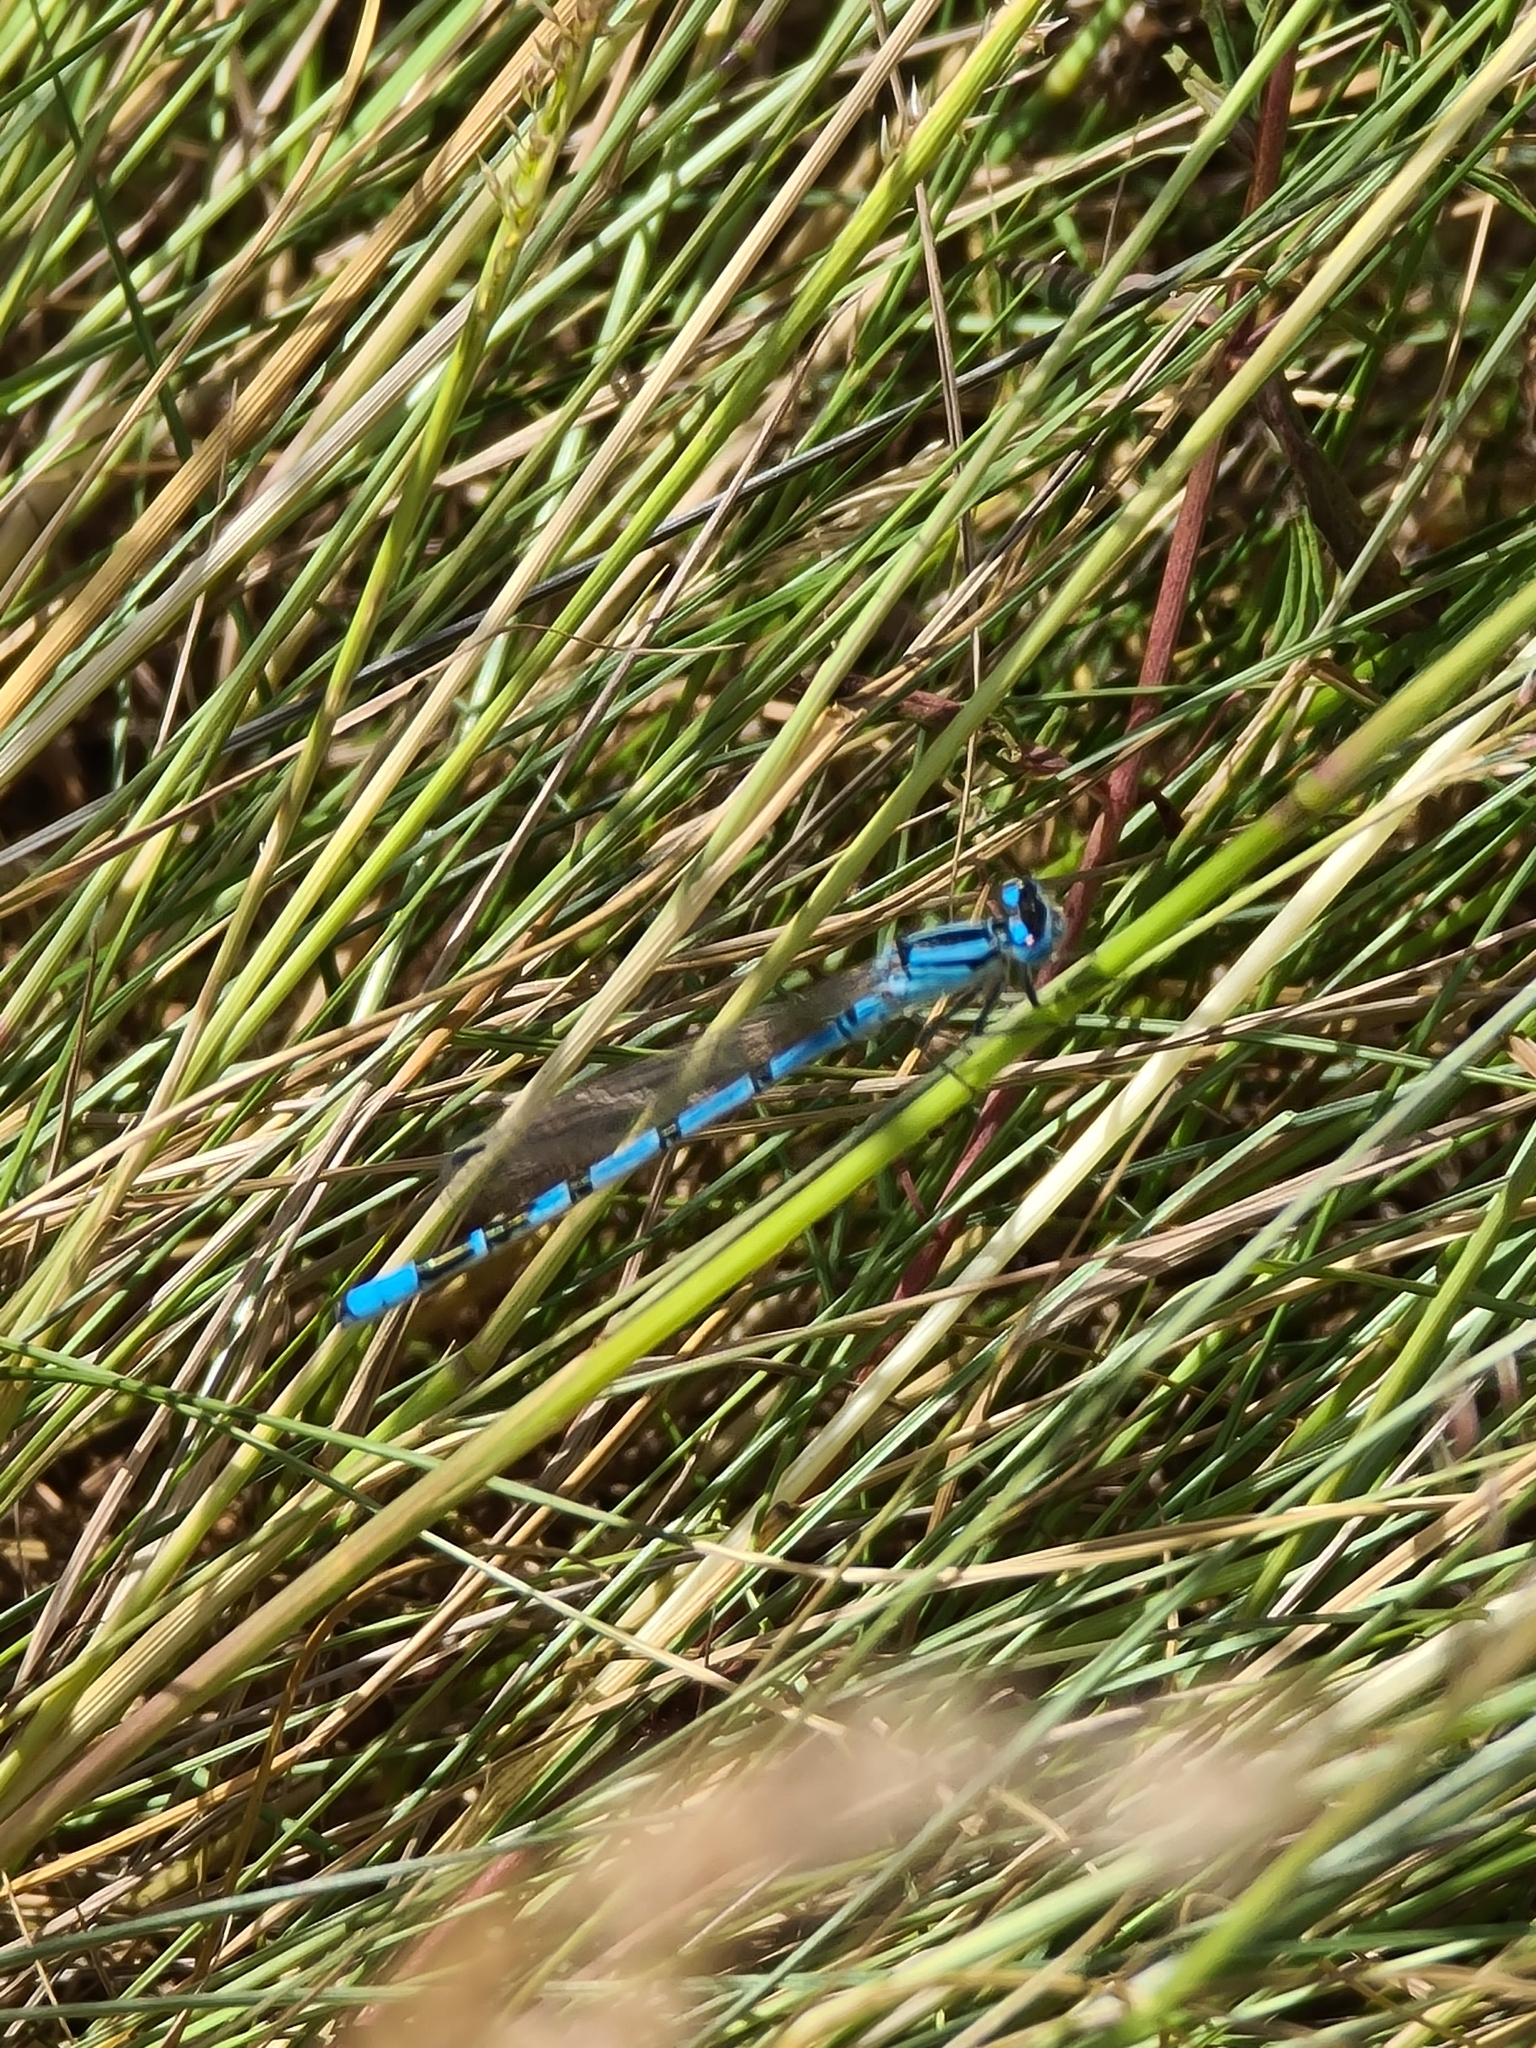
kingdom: Animalia
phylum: Arthropoda
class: Insecta
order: Odonata
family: Coenagrionidae
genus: Enallagma
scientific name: Enallagma cyathigerum
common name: Common blue damselfly
